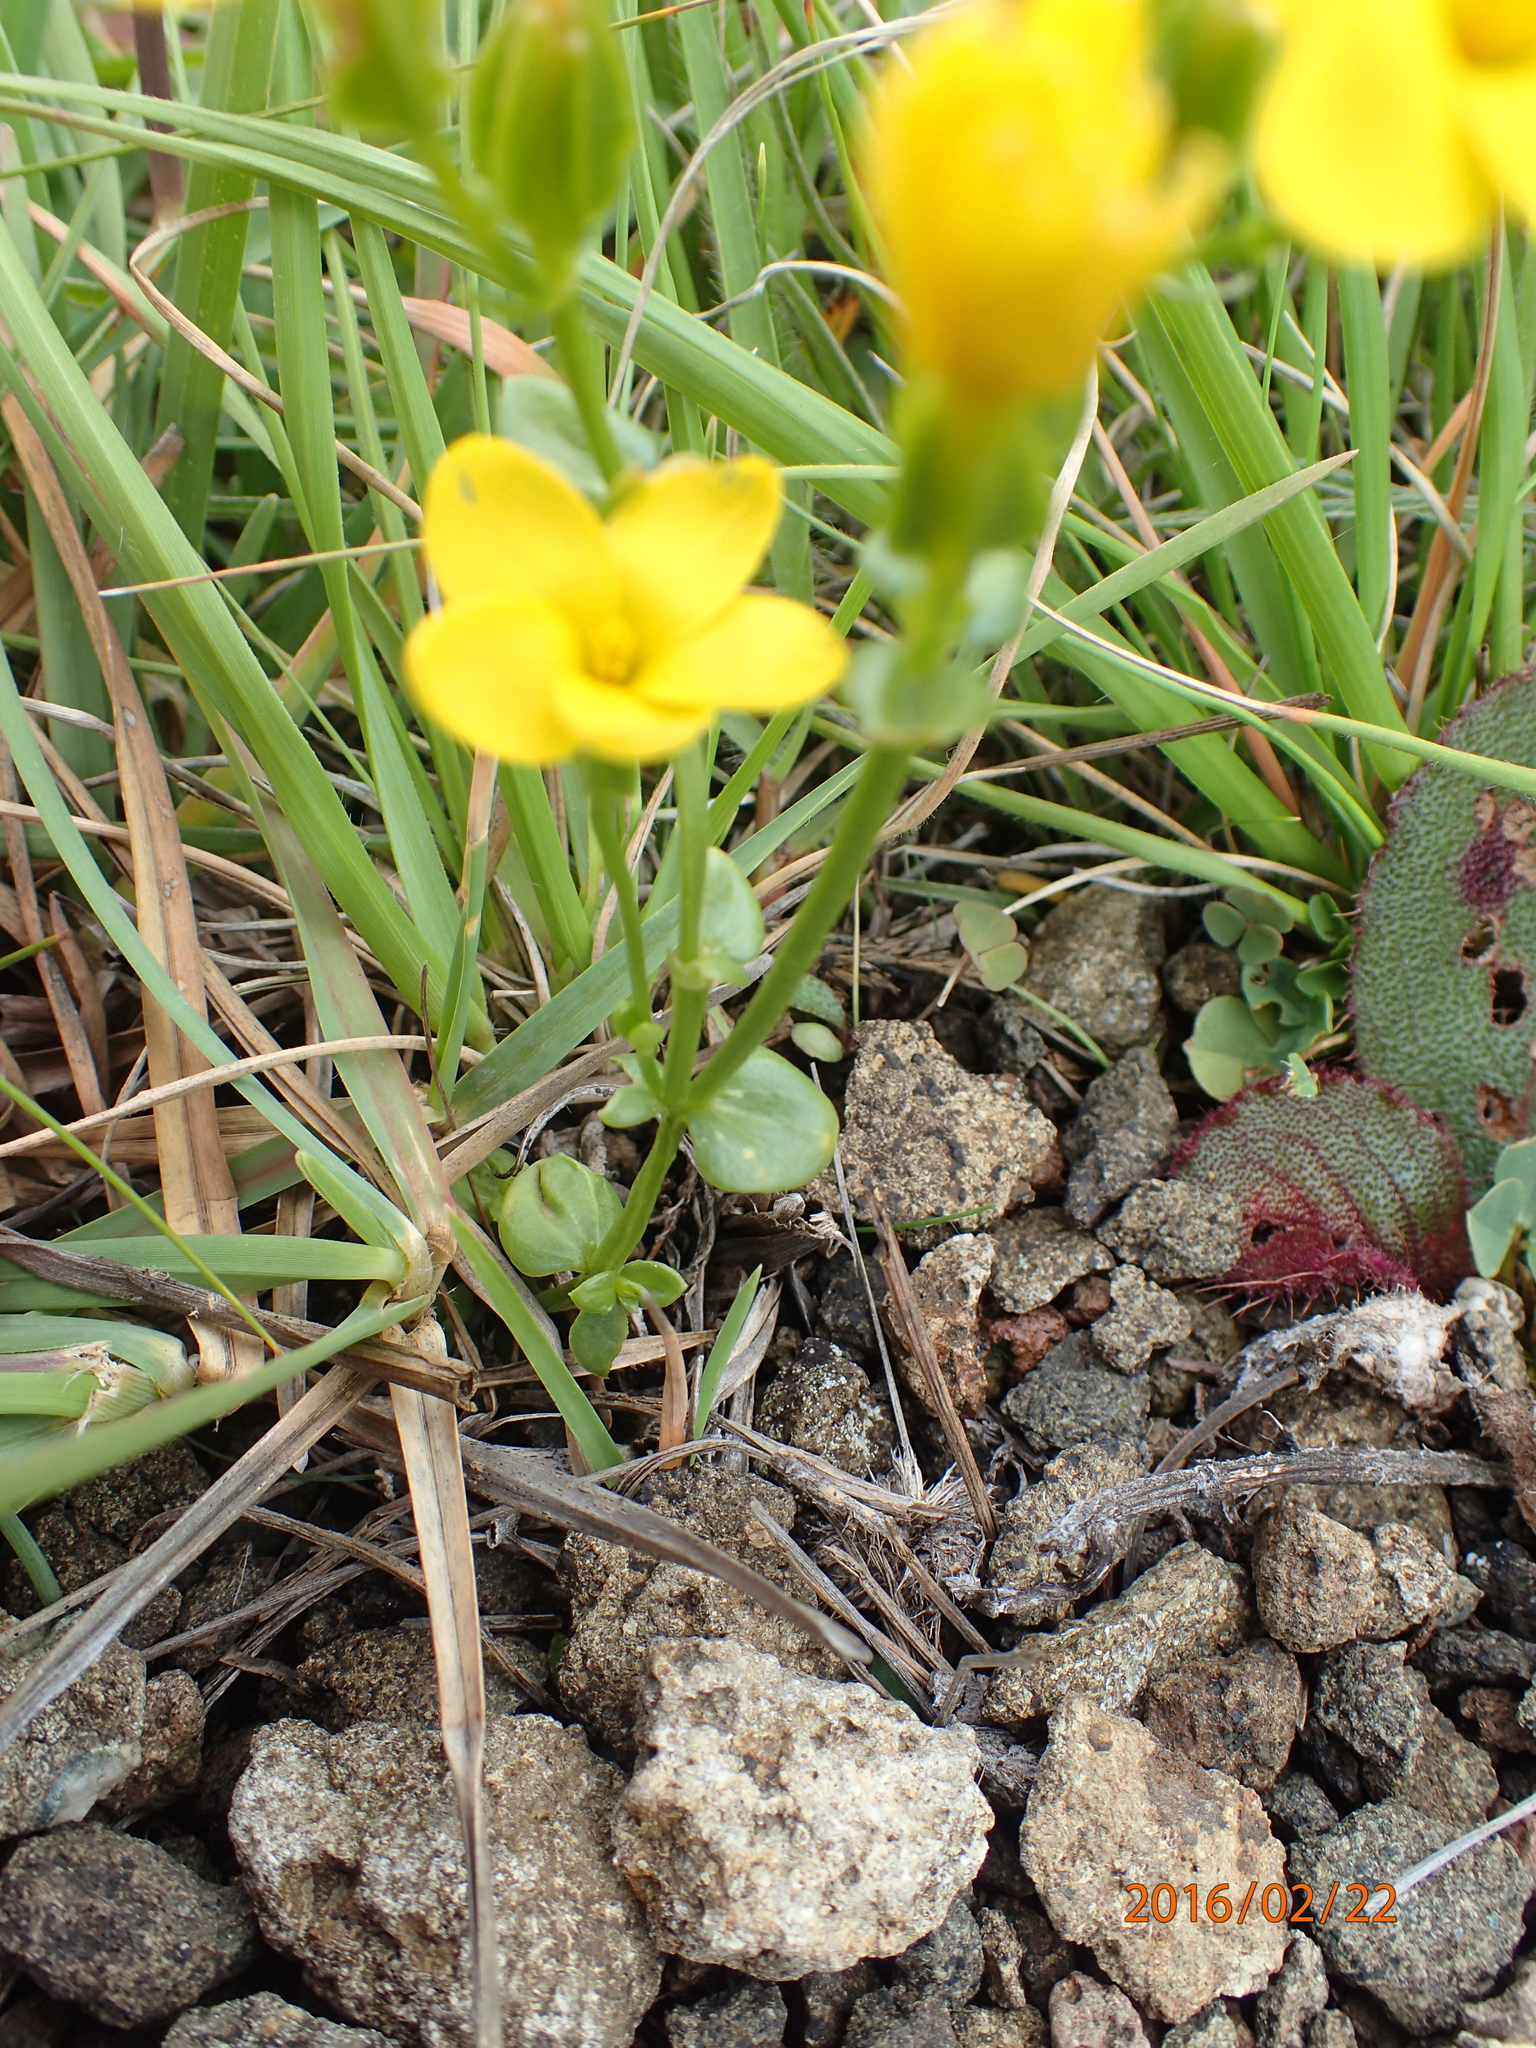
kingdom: Plantae
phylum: Tracheophyta
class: Magnoliopsida
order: Gentianales
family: Gentianaceae
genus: Sebaea
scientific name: Sebaea natalensis
